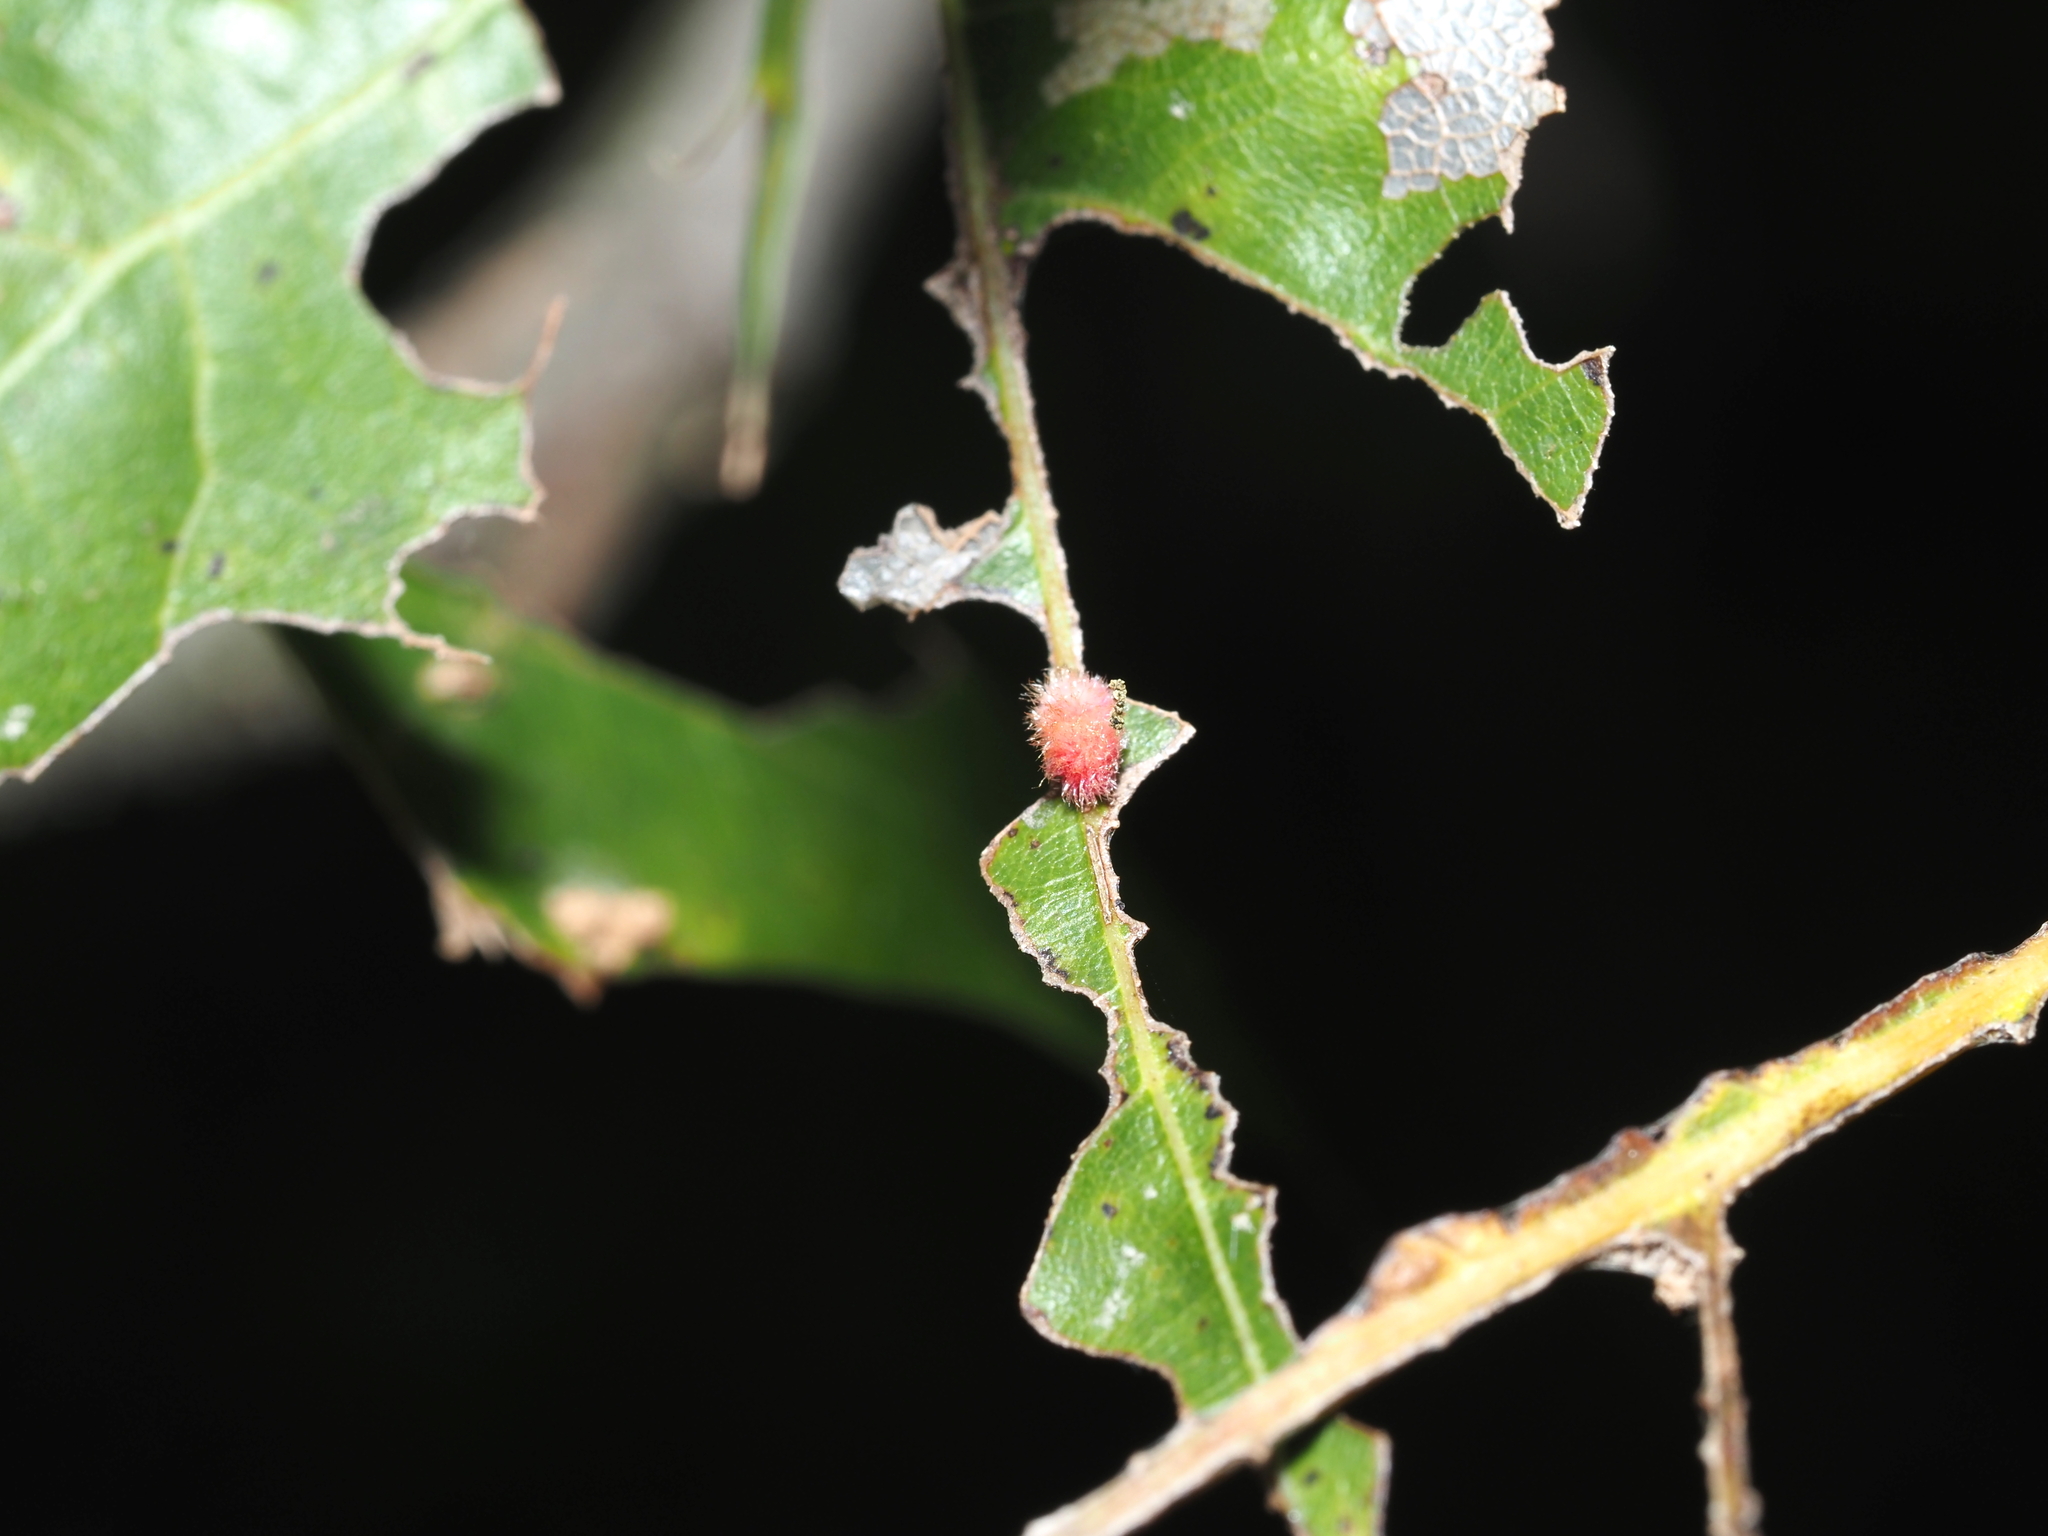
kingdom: Animalia
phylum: Arthropoda
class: Insecta
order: Hymenoptera
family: Cynipidae
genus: Callirhytis
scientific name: Callirhytis
